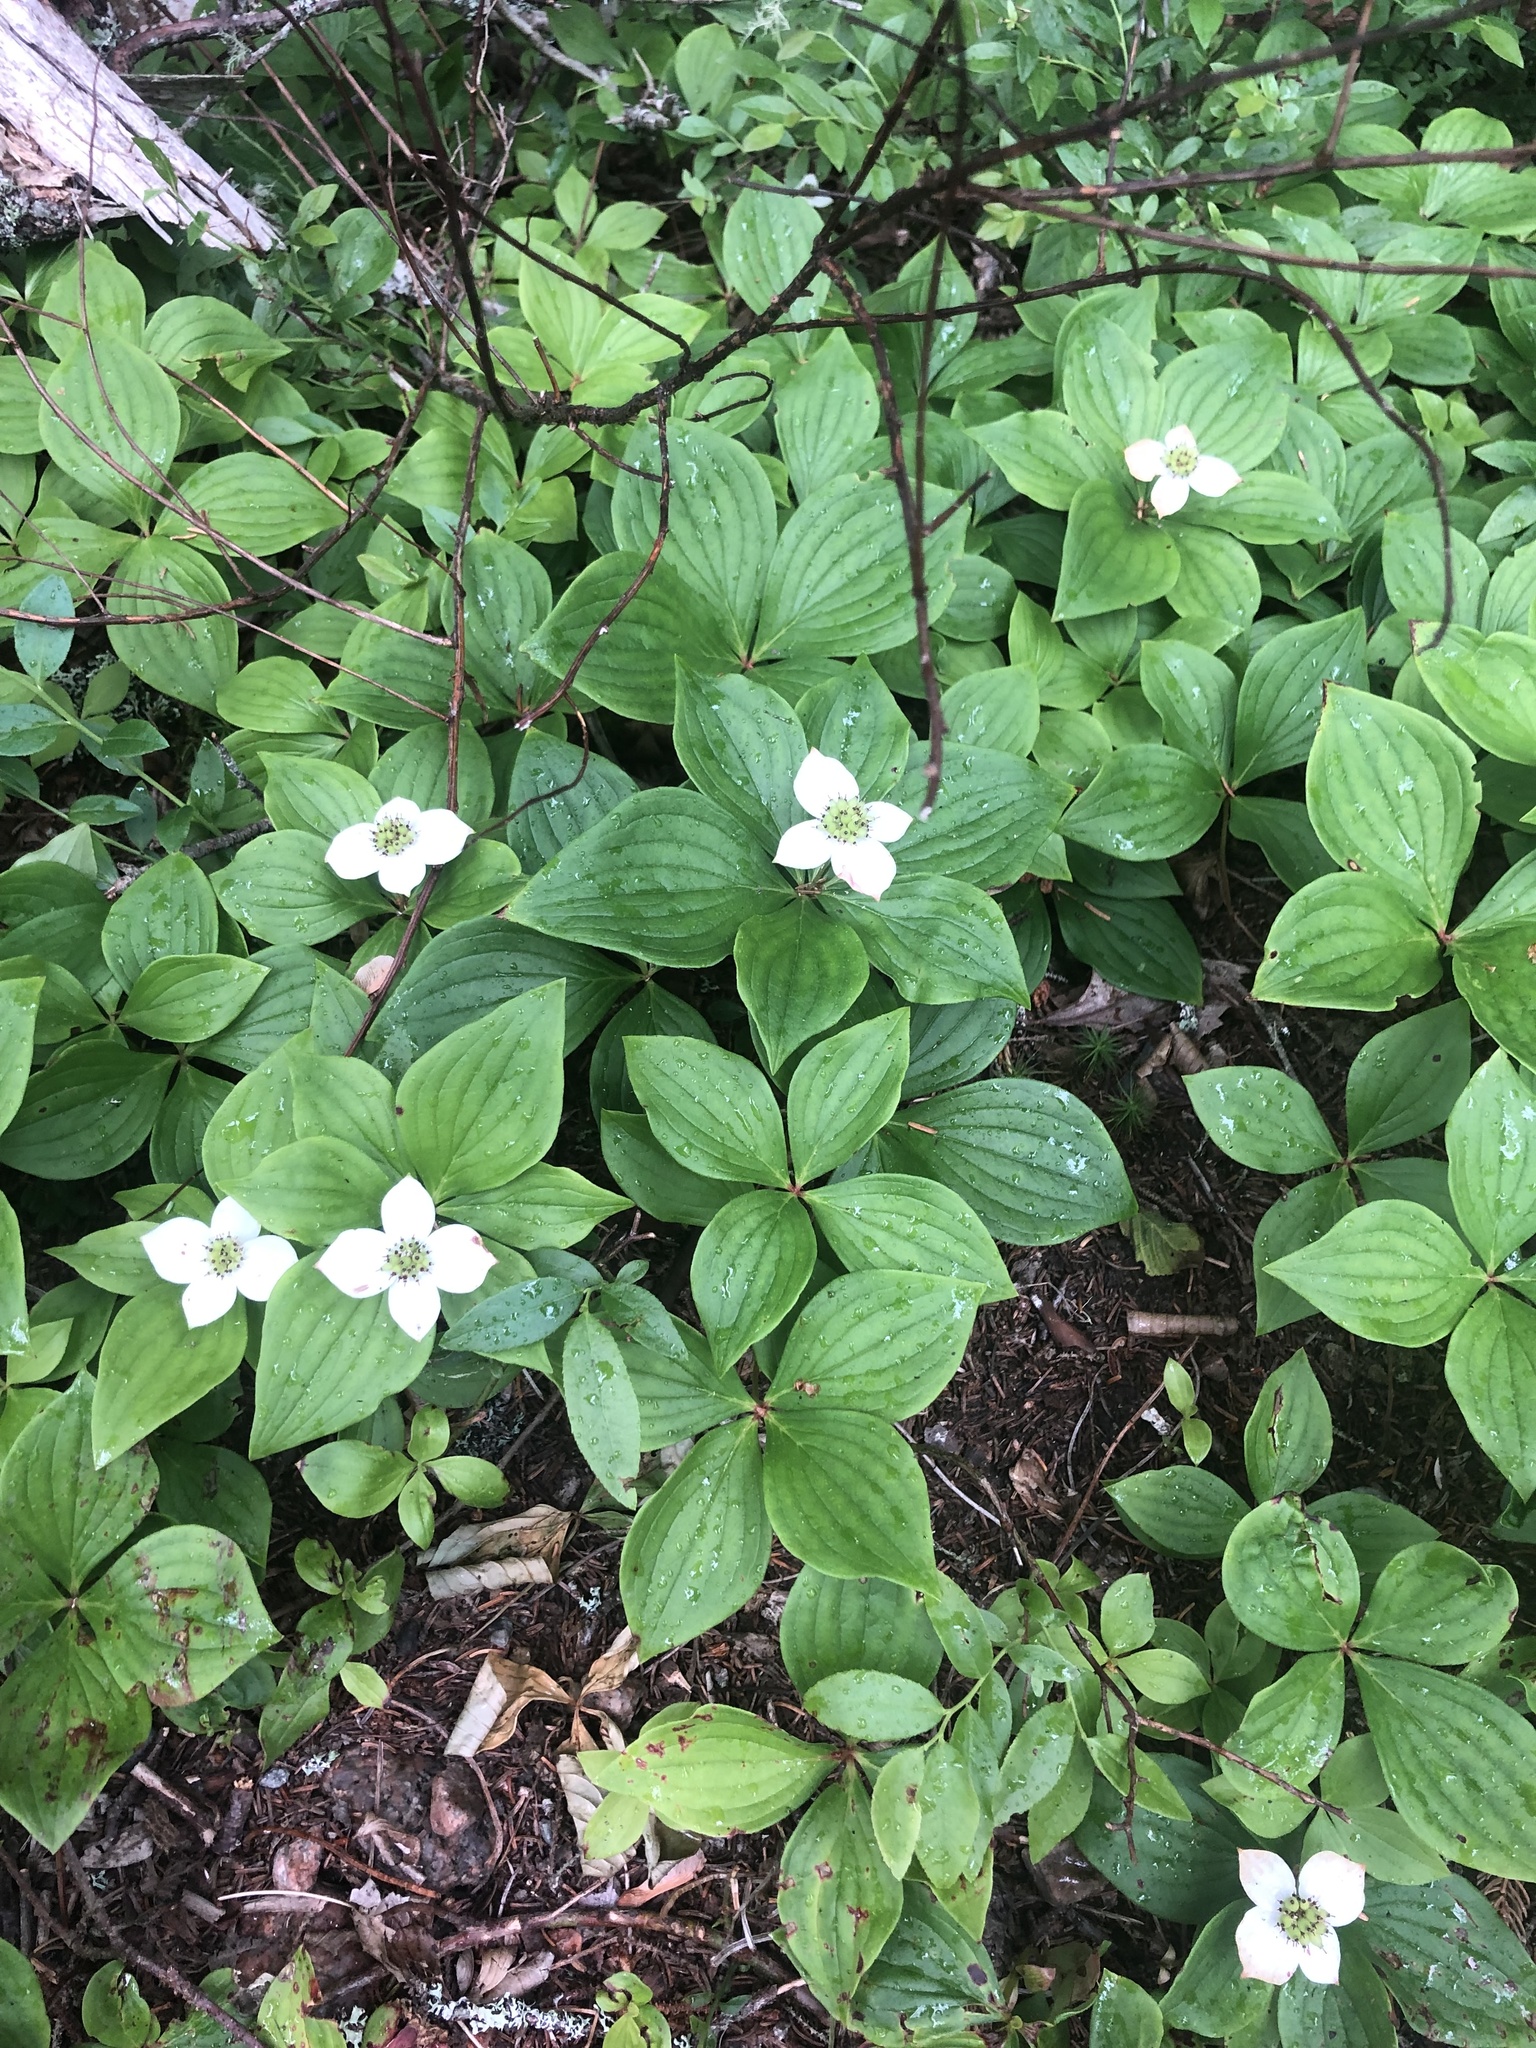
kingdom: Plantae
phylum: Tracheophyta
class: Magnoliopsida
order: Cornales
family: Cornaceae
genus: Cornus
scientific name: Cornus canadensis
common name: Creeping dogwood
